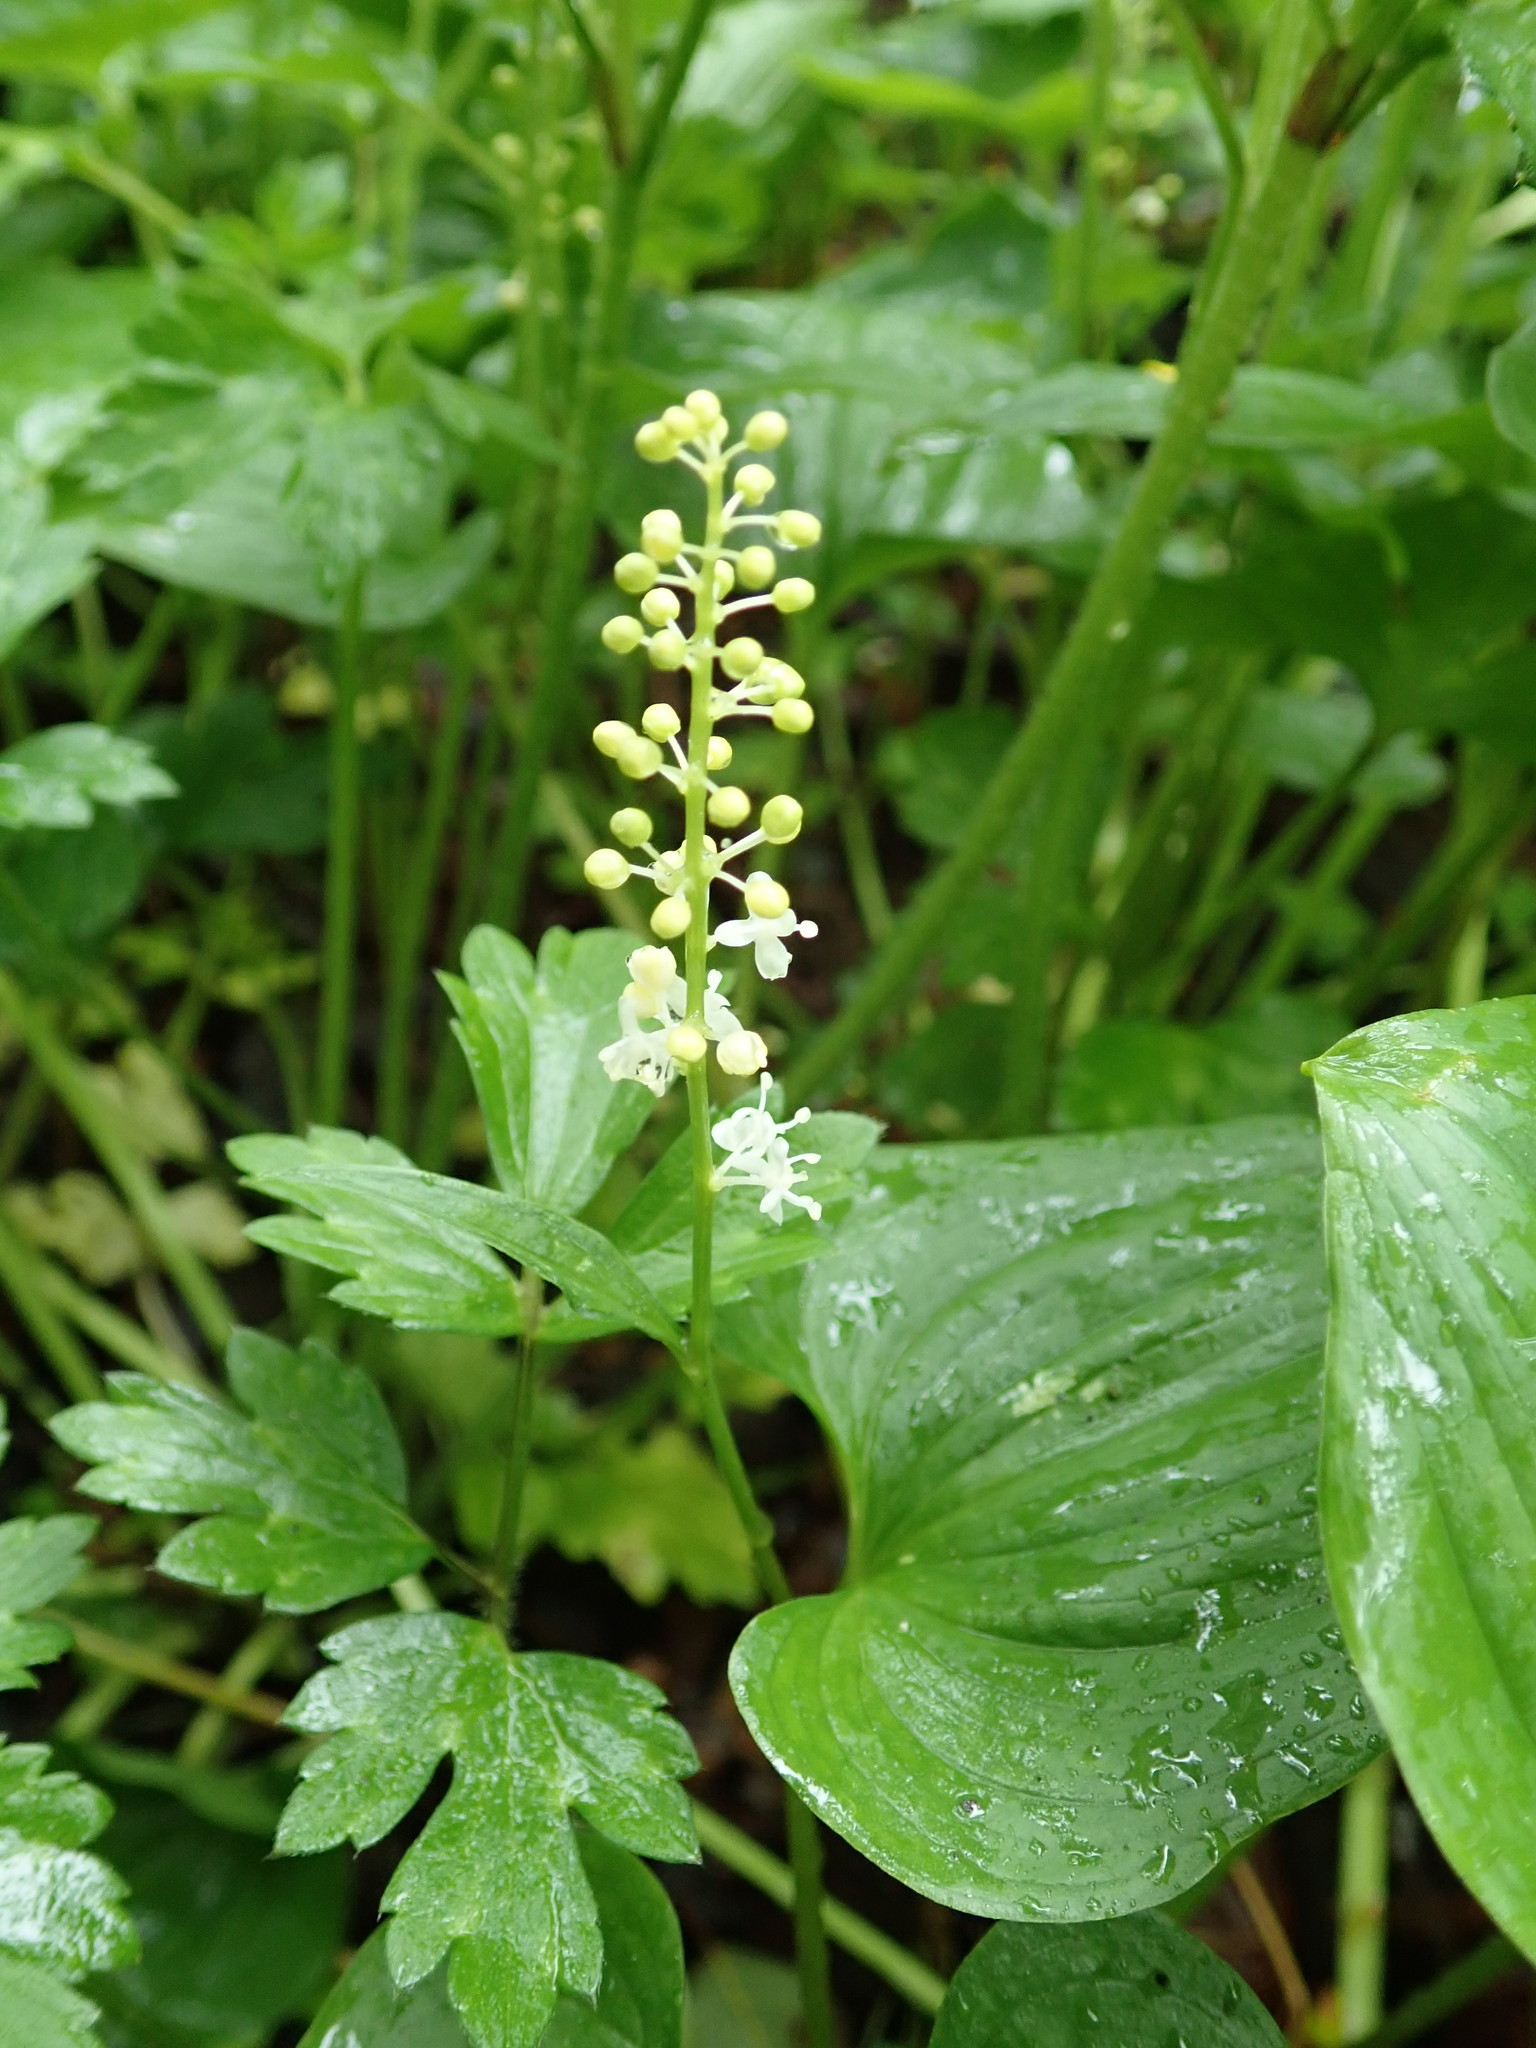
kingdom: Plantae
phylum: Tracheophyta
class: Liliopsida
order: Asparagales
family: Asparagaceae
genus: Maianthemum
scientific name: Maianthemum dilatatum
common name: False lily-of-the-valley
